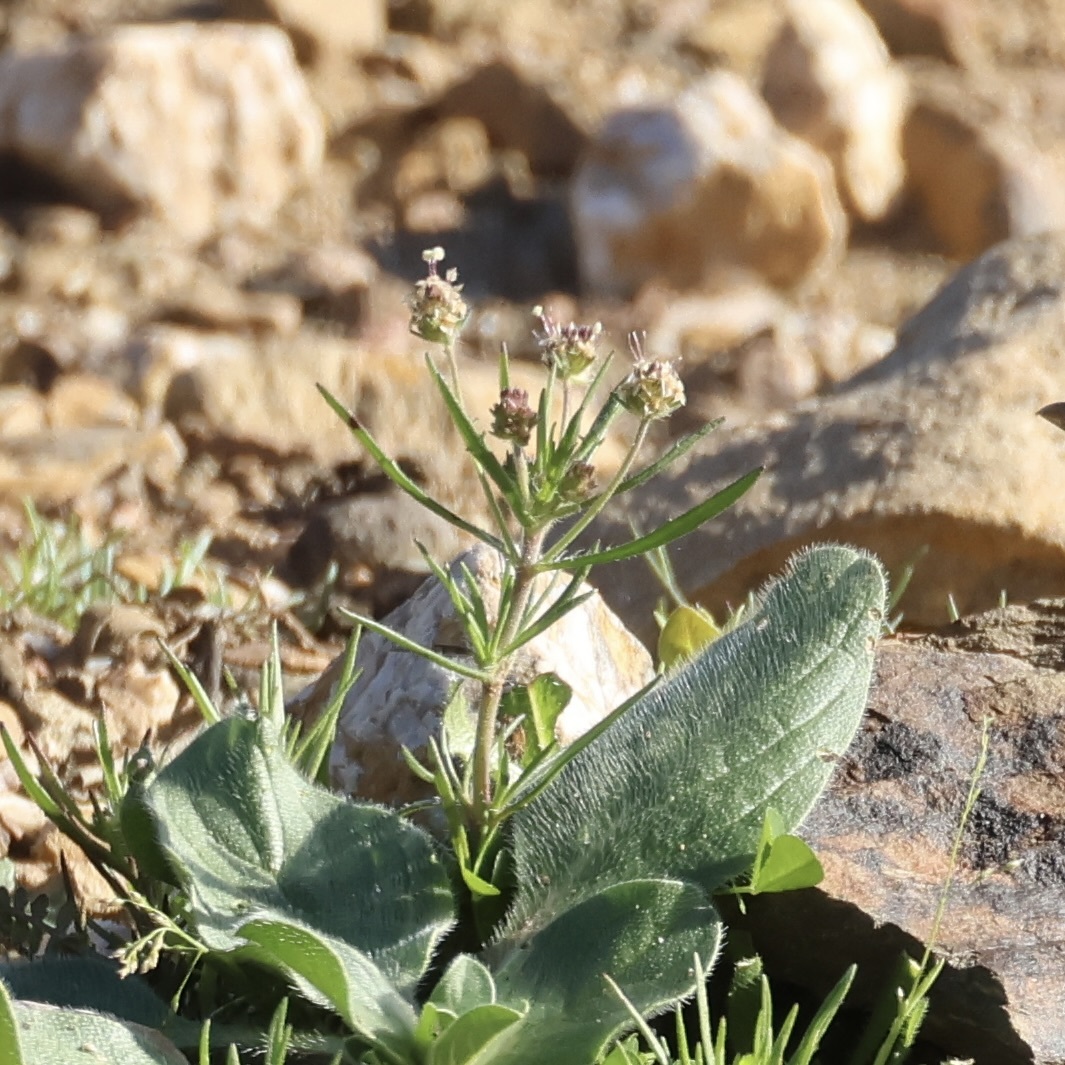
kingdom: Plantae
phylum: Tracheophyta
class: Magnoliopsida
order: Lamiales
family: Plantaginaceae
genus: Plantago
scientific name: Plantago afra
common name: Glandular plantain
